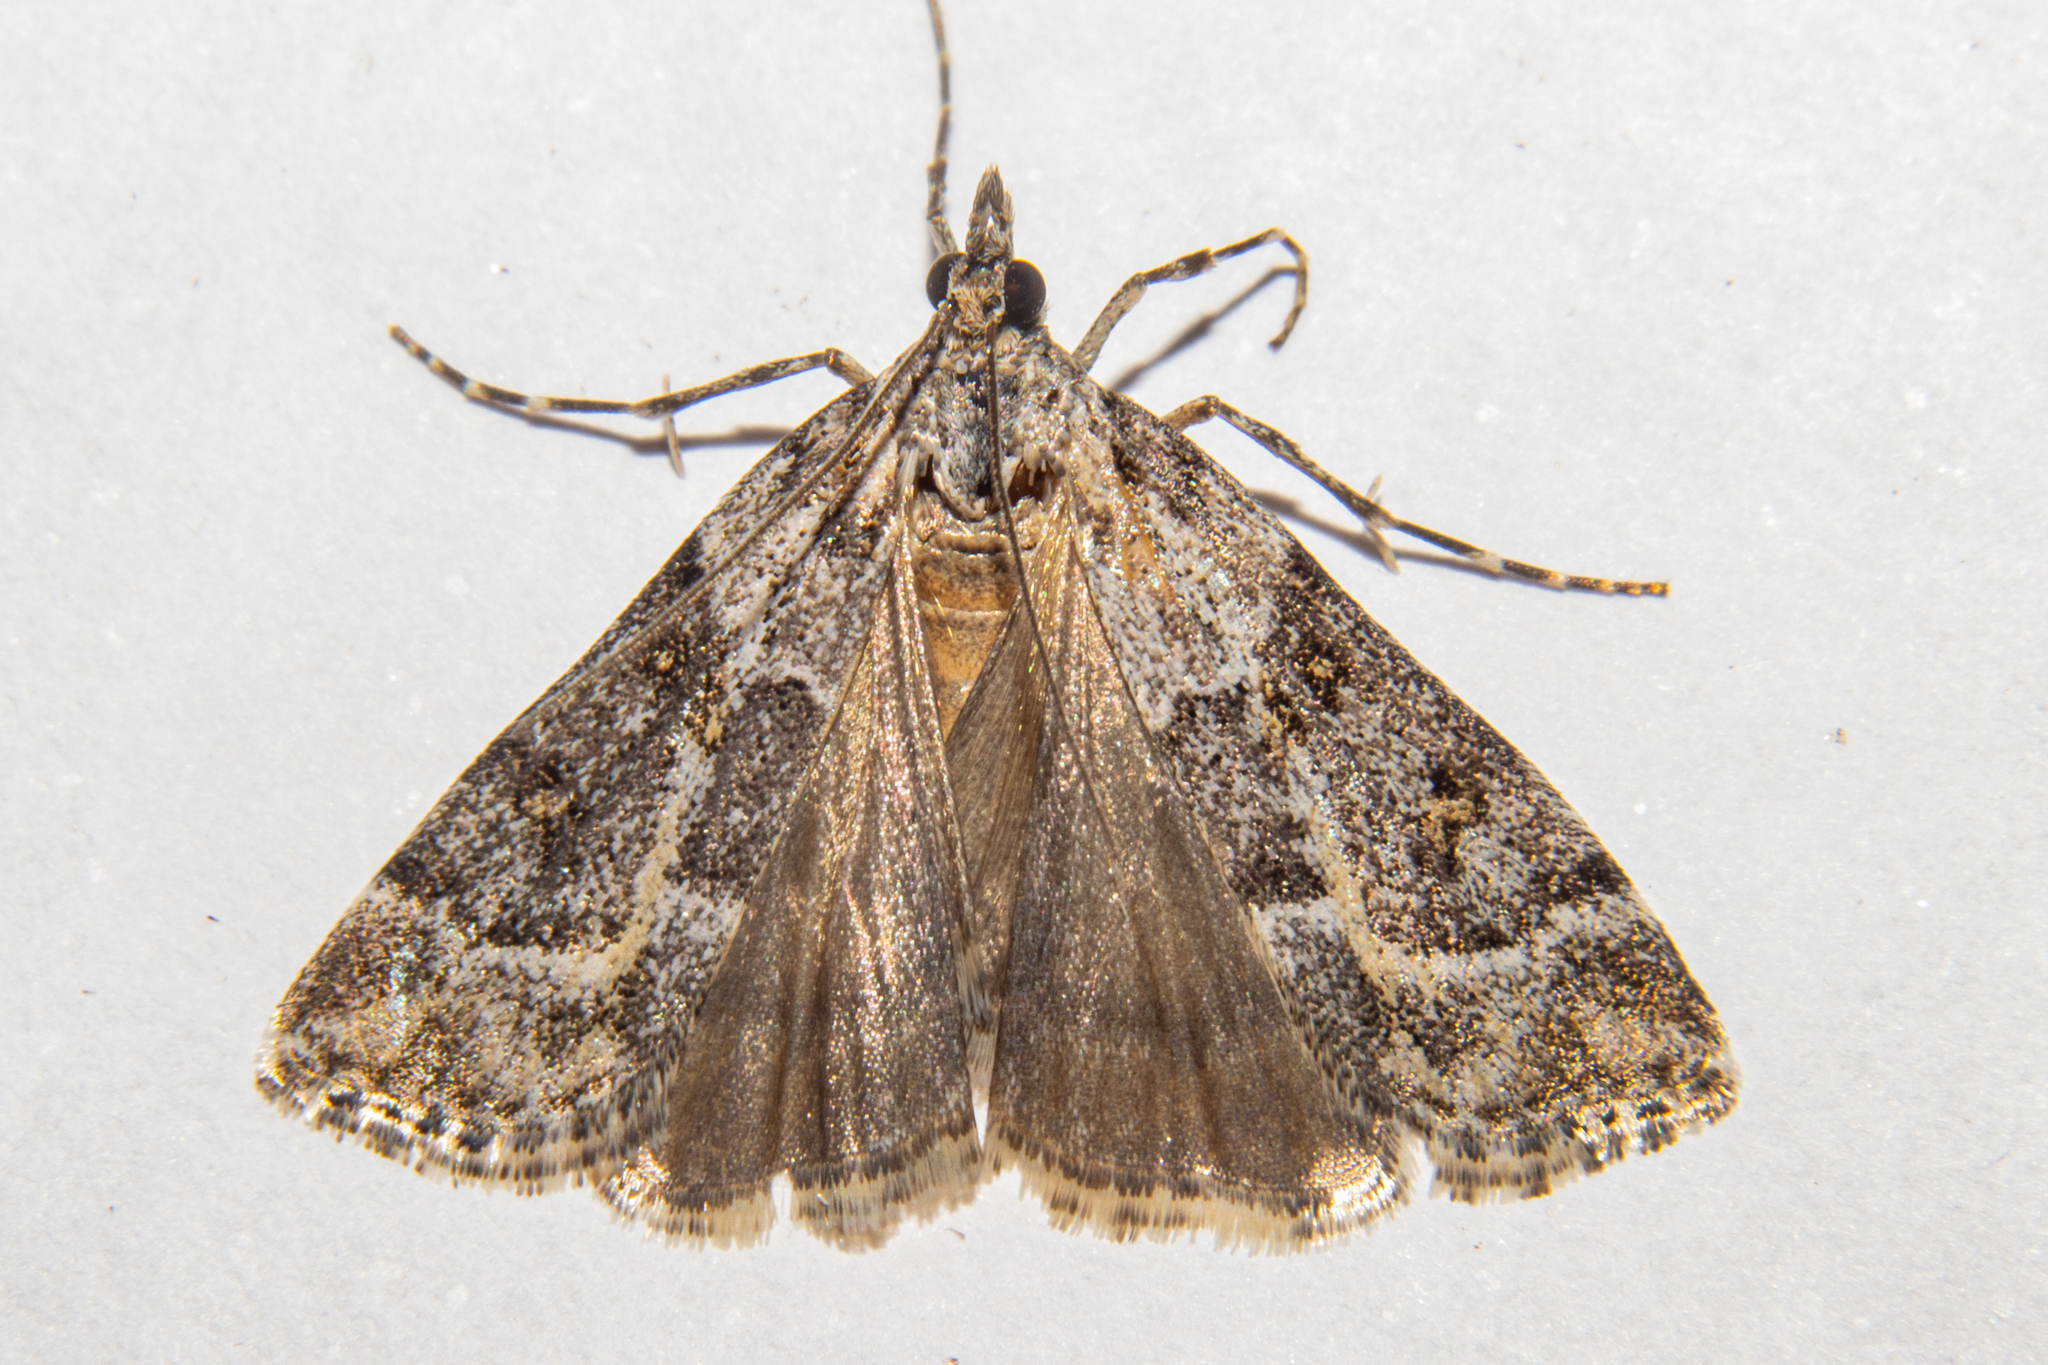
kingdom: Animalia
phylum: Arthropoda
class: Insecta
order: Lepidoptera
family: Crambidae
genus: Scoparia
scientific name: Scoparia tetracycla
